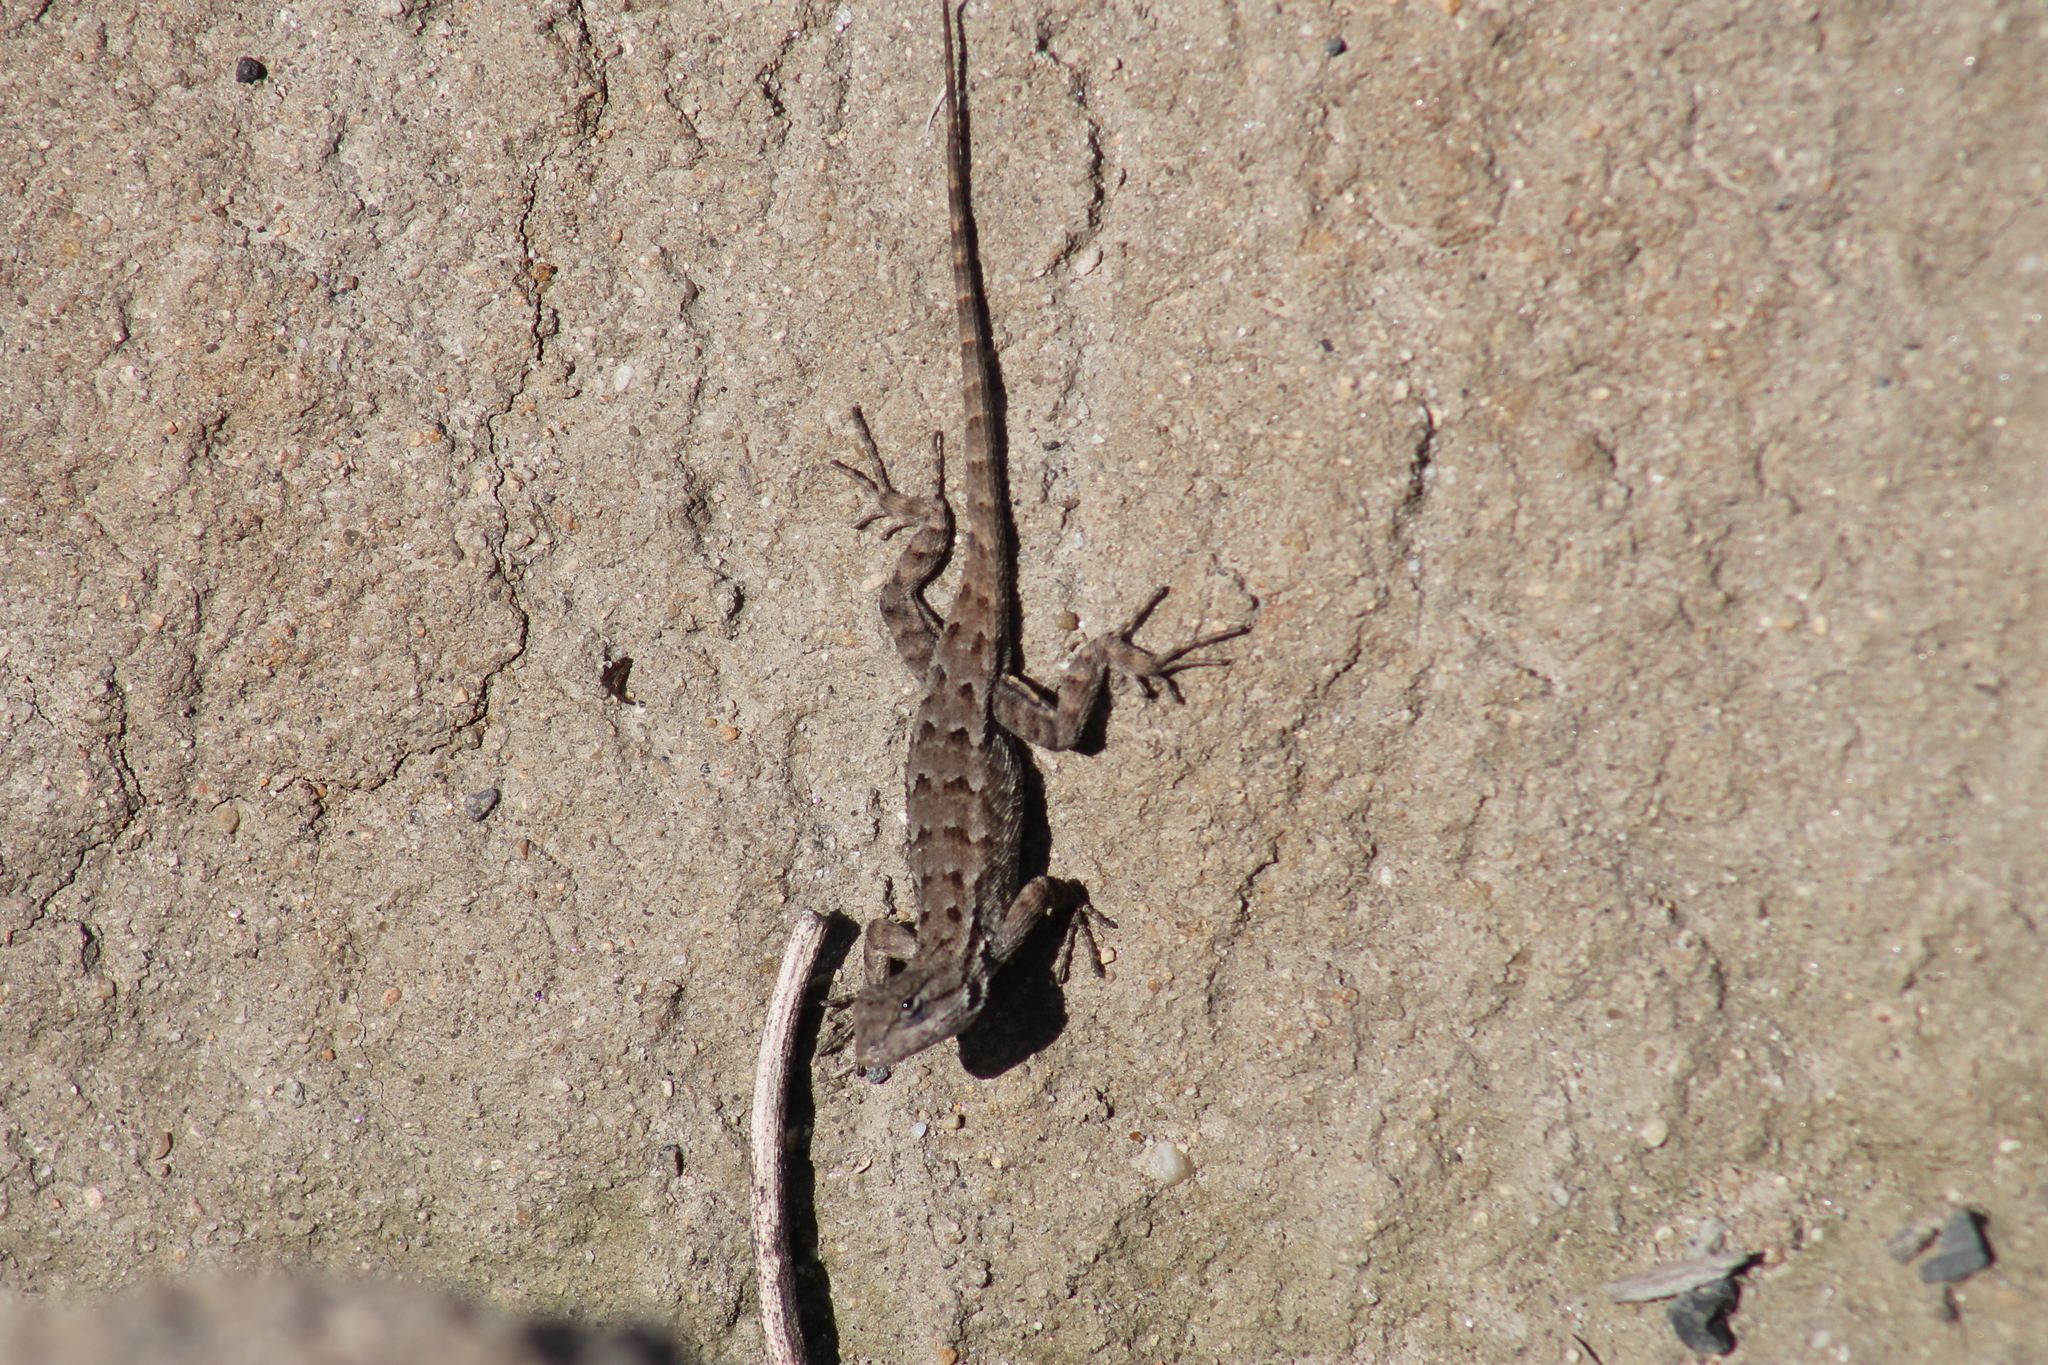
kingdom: Animalia
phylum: Chordata
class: Squamata
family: Phrynosomatidae
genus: Sceloporus
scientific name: Sceloporus occidentalis
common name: Western fence lizard
